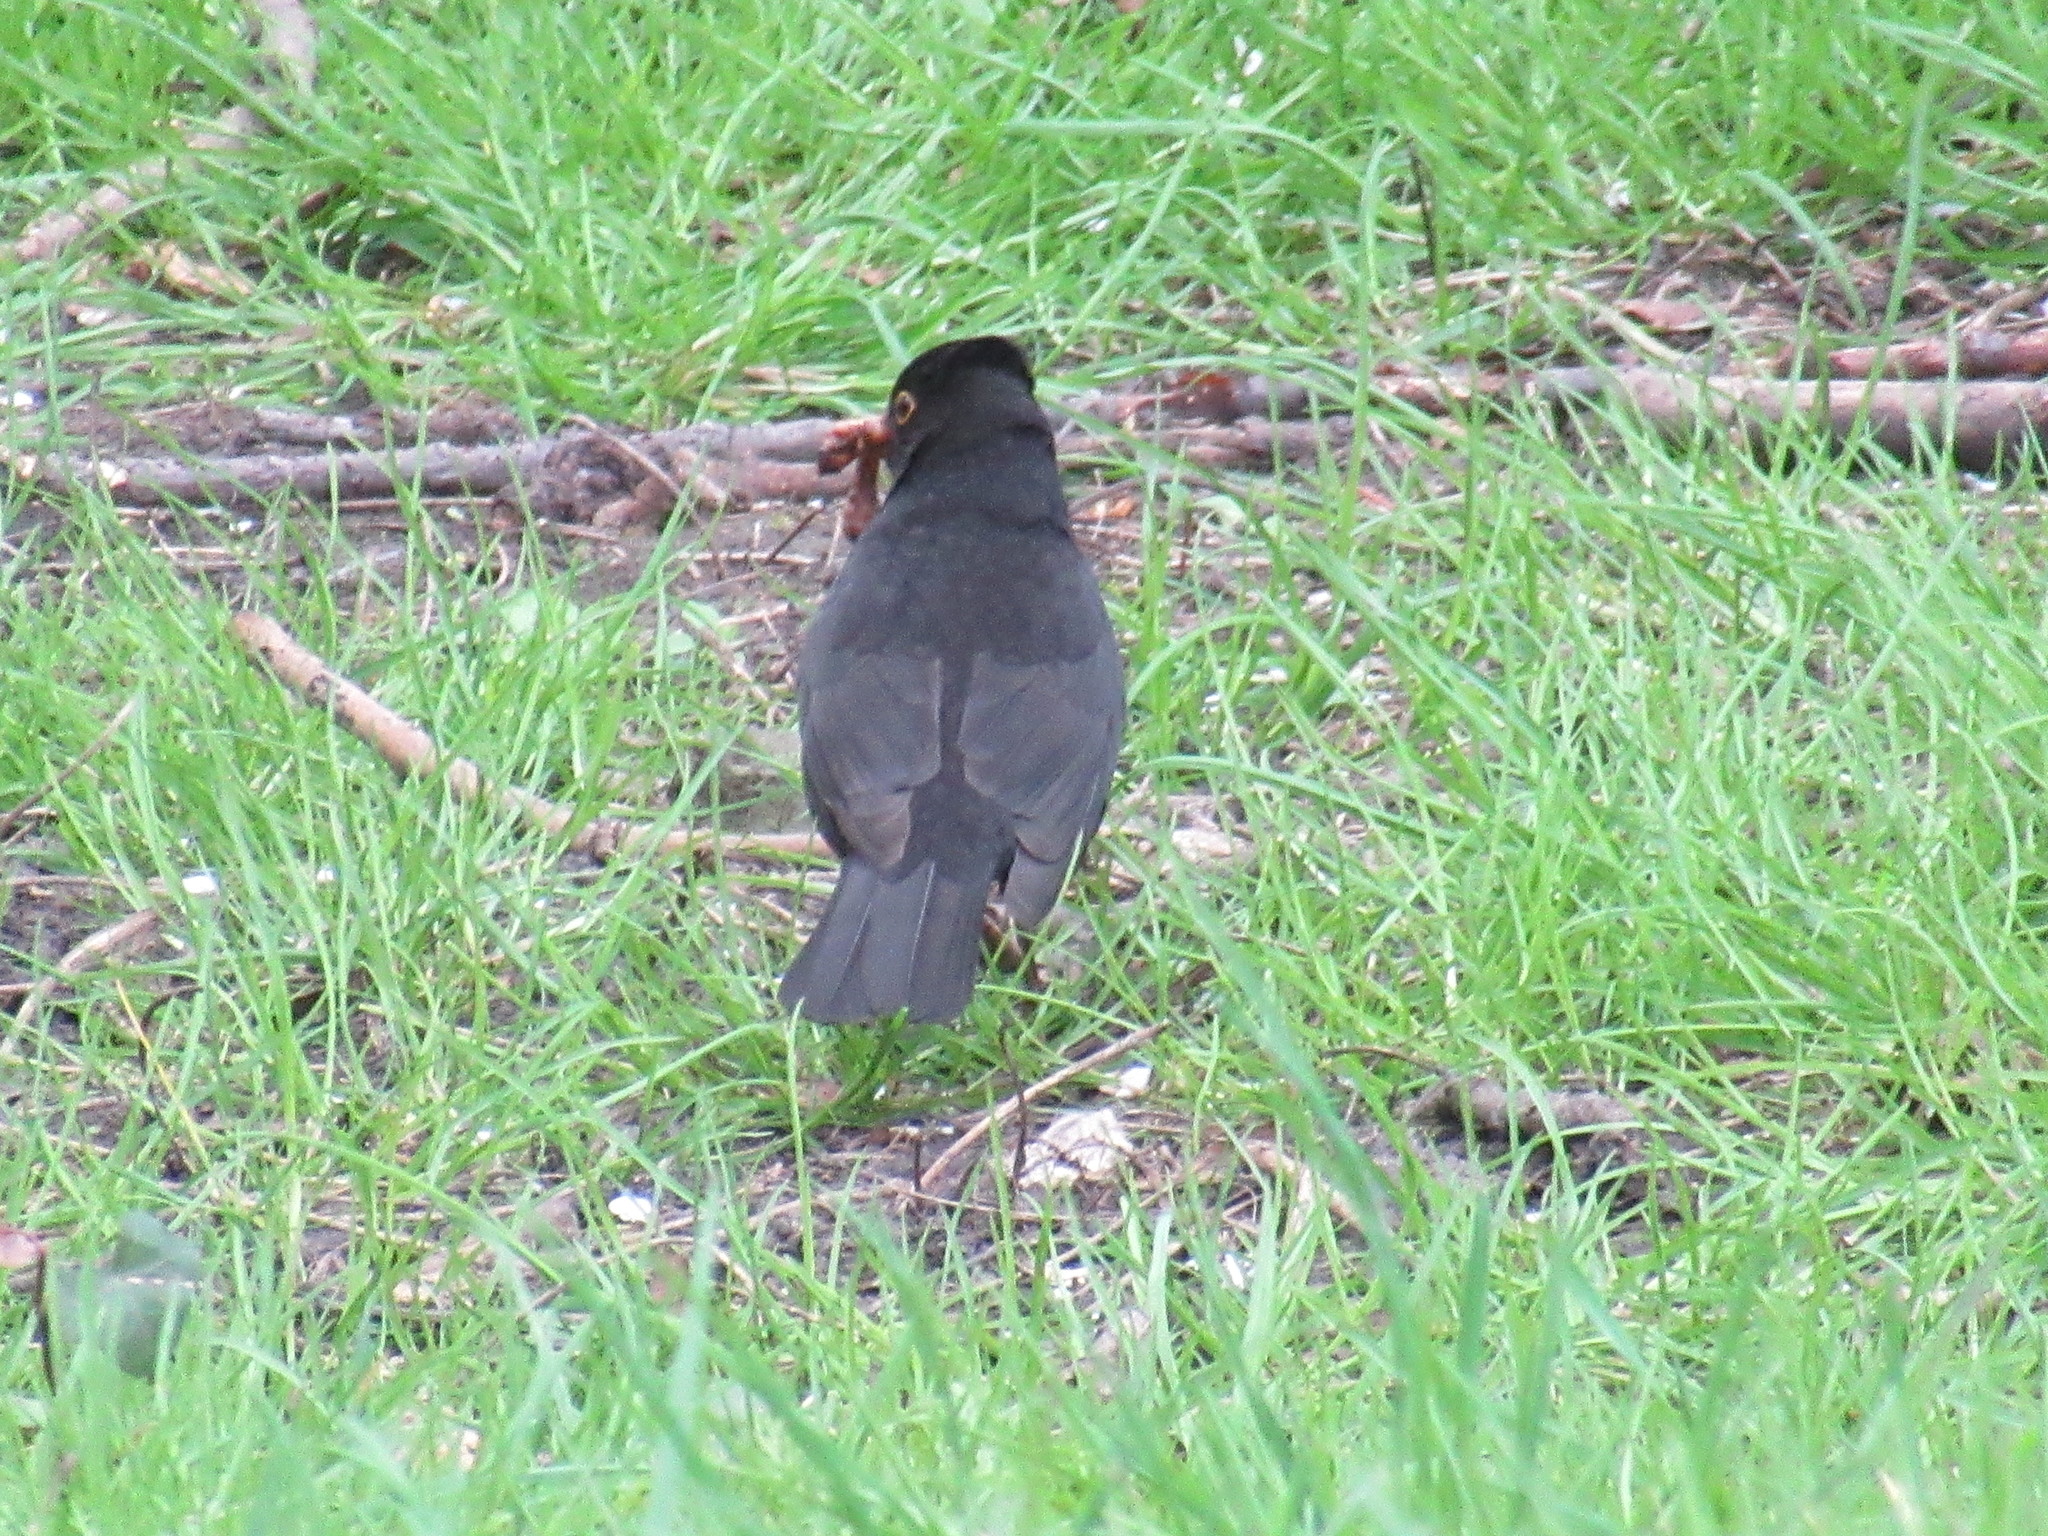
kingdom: Animalia
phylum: Chordata
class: Aves
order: Passeriformes
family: Turdidae
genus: Turdus
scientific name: Turdus merula
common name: Common blackbird
